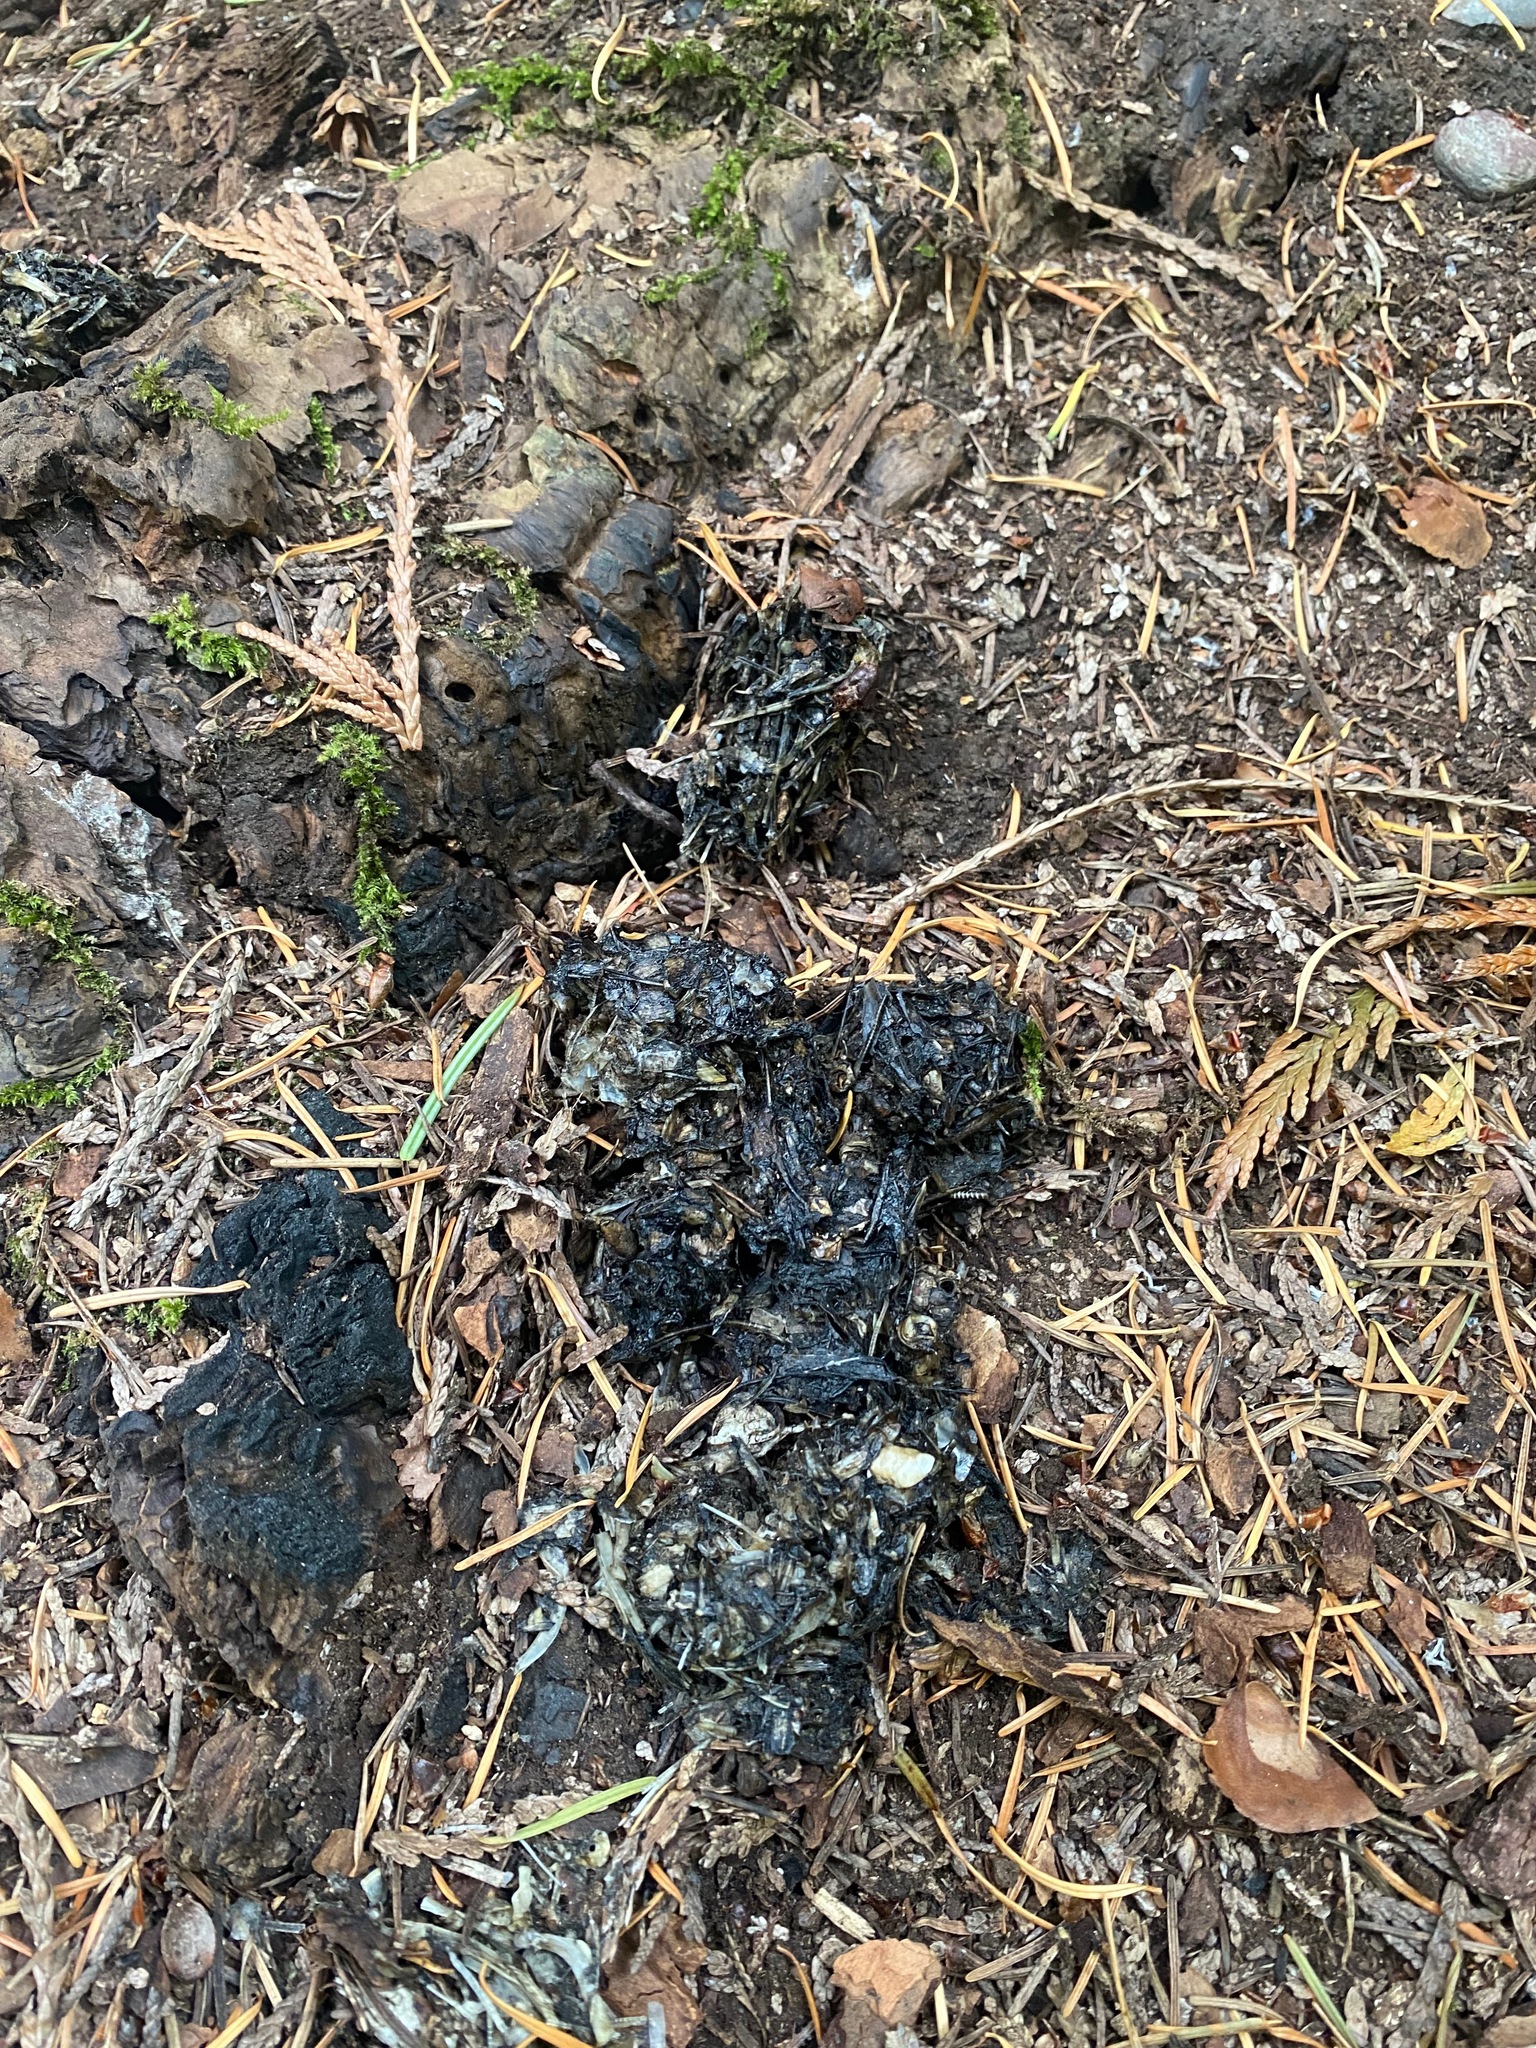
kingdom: Animalia
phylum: Chordata
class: Mammalia
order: Carnivora
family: Mustelidae
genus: Lontra
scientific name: Lontra canadensis
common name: North american river otter
